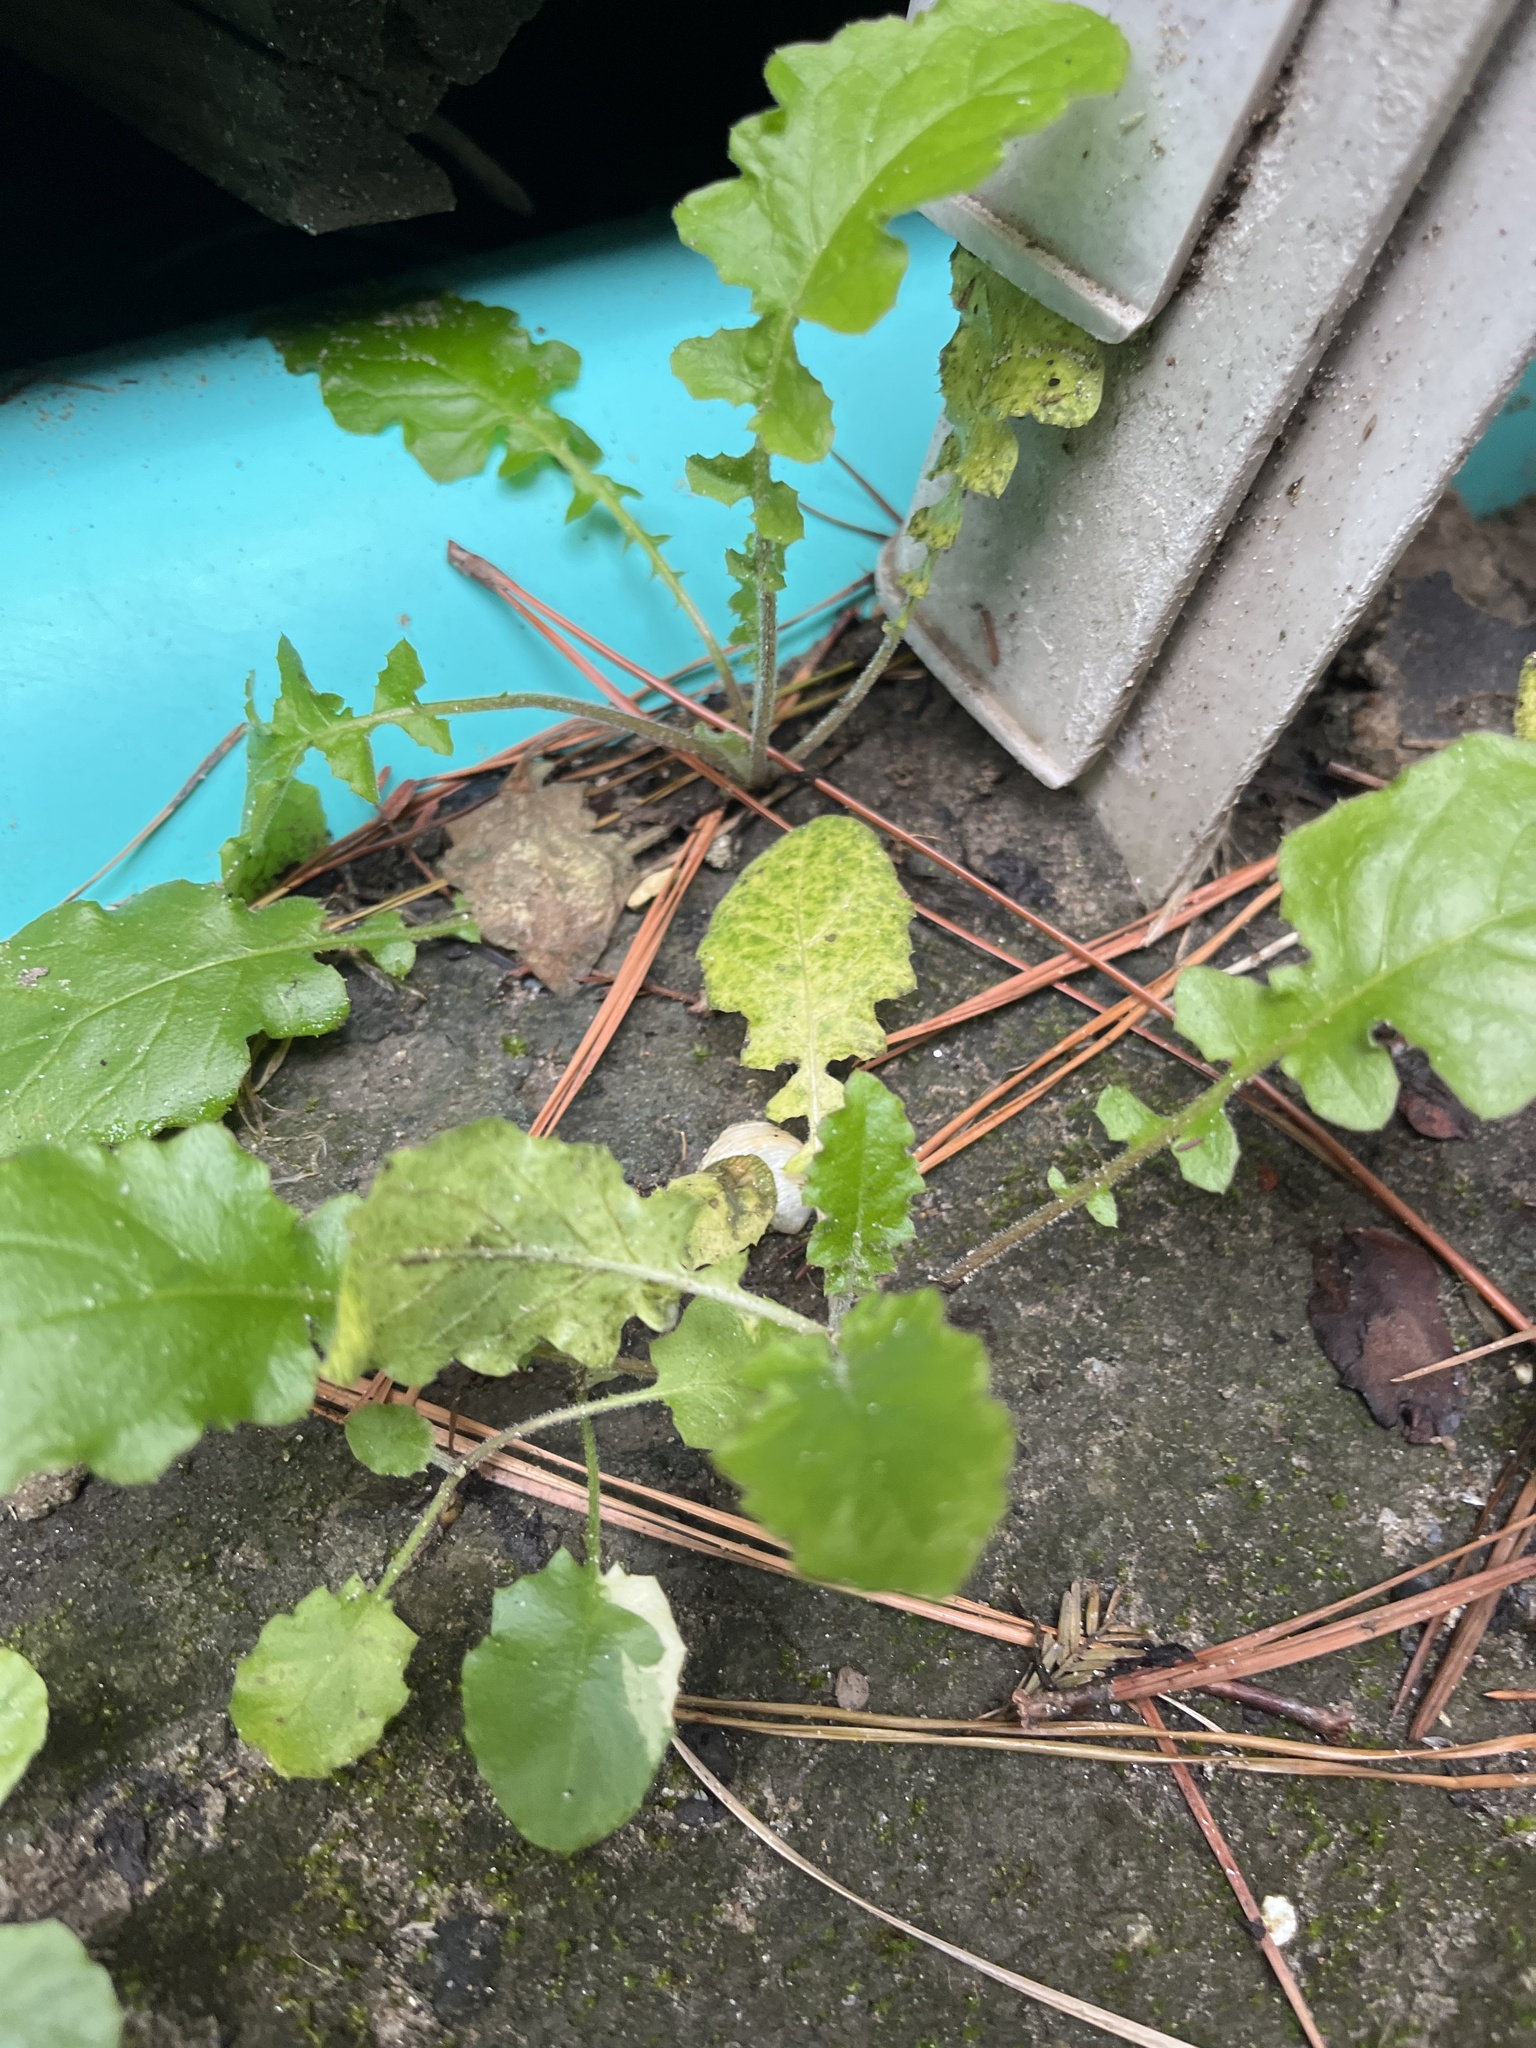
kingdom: Plantae
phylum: Tracheophyta
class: Magnoliopsida
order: Asterales
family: Asteraceae
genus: Youngia
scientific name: Youngia japonica
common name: Oriental false hawksbeard
